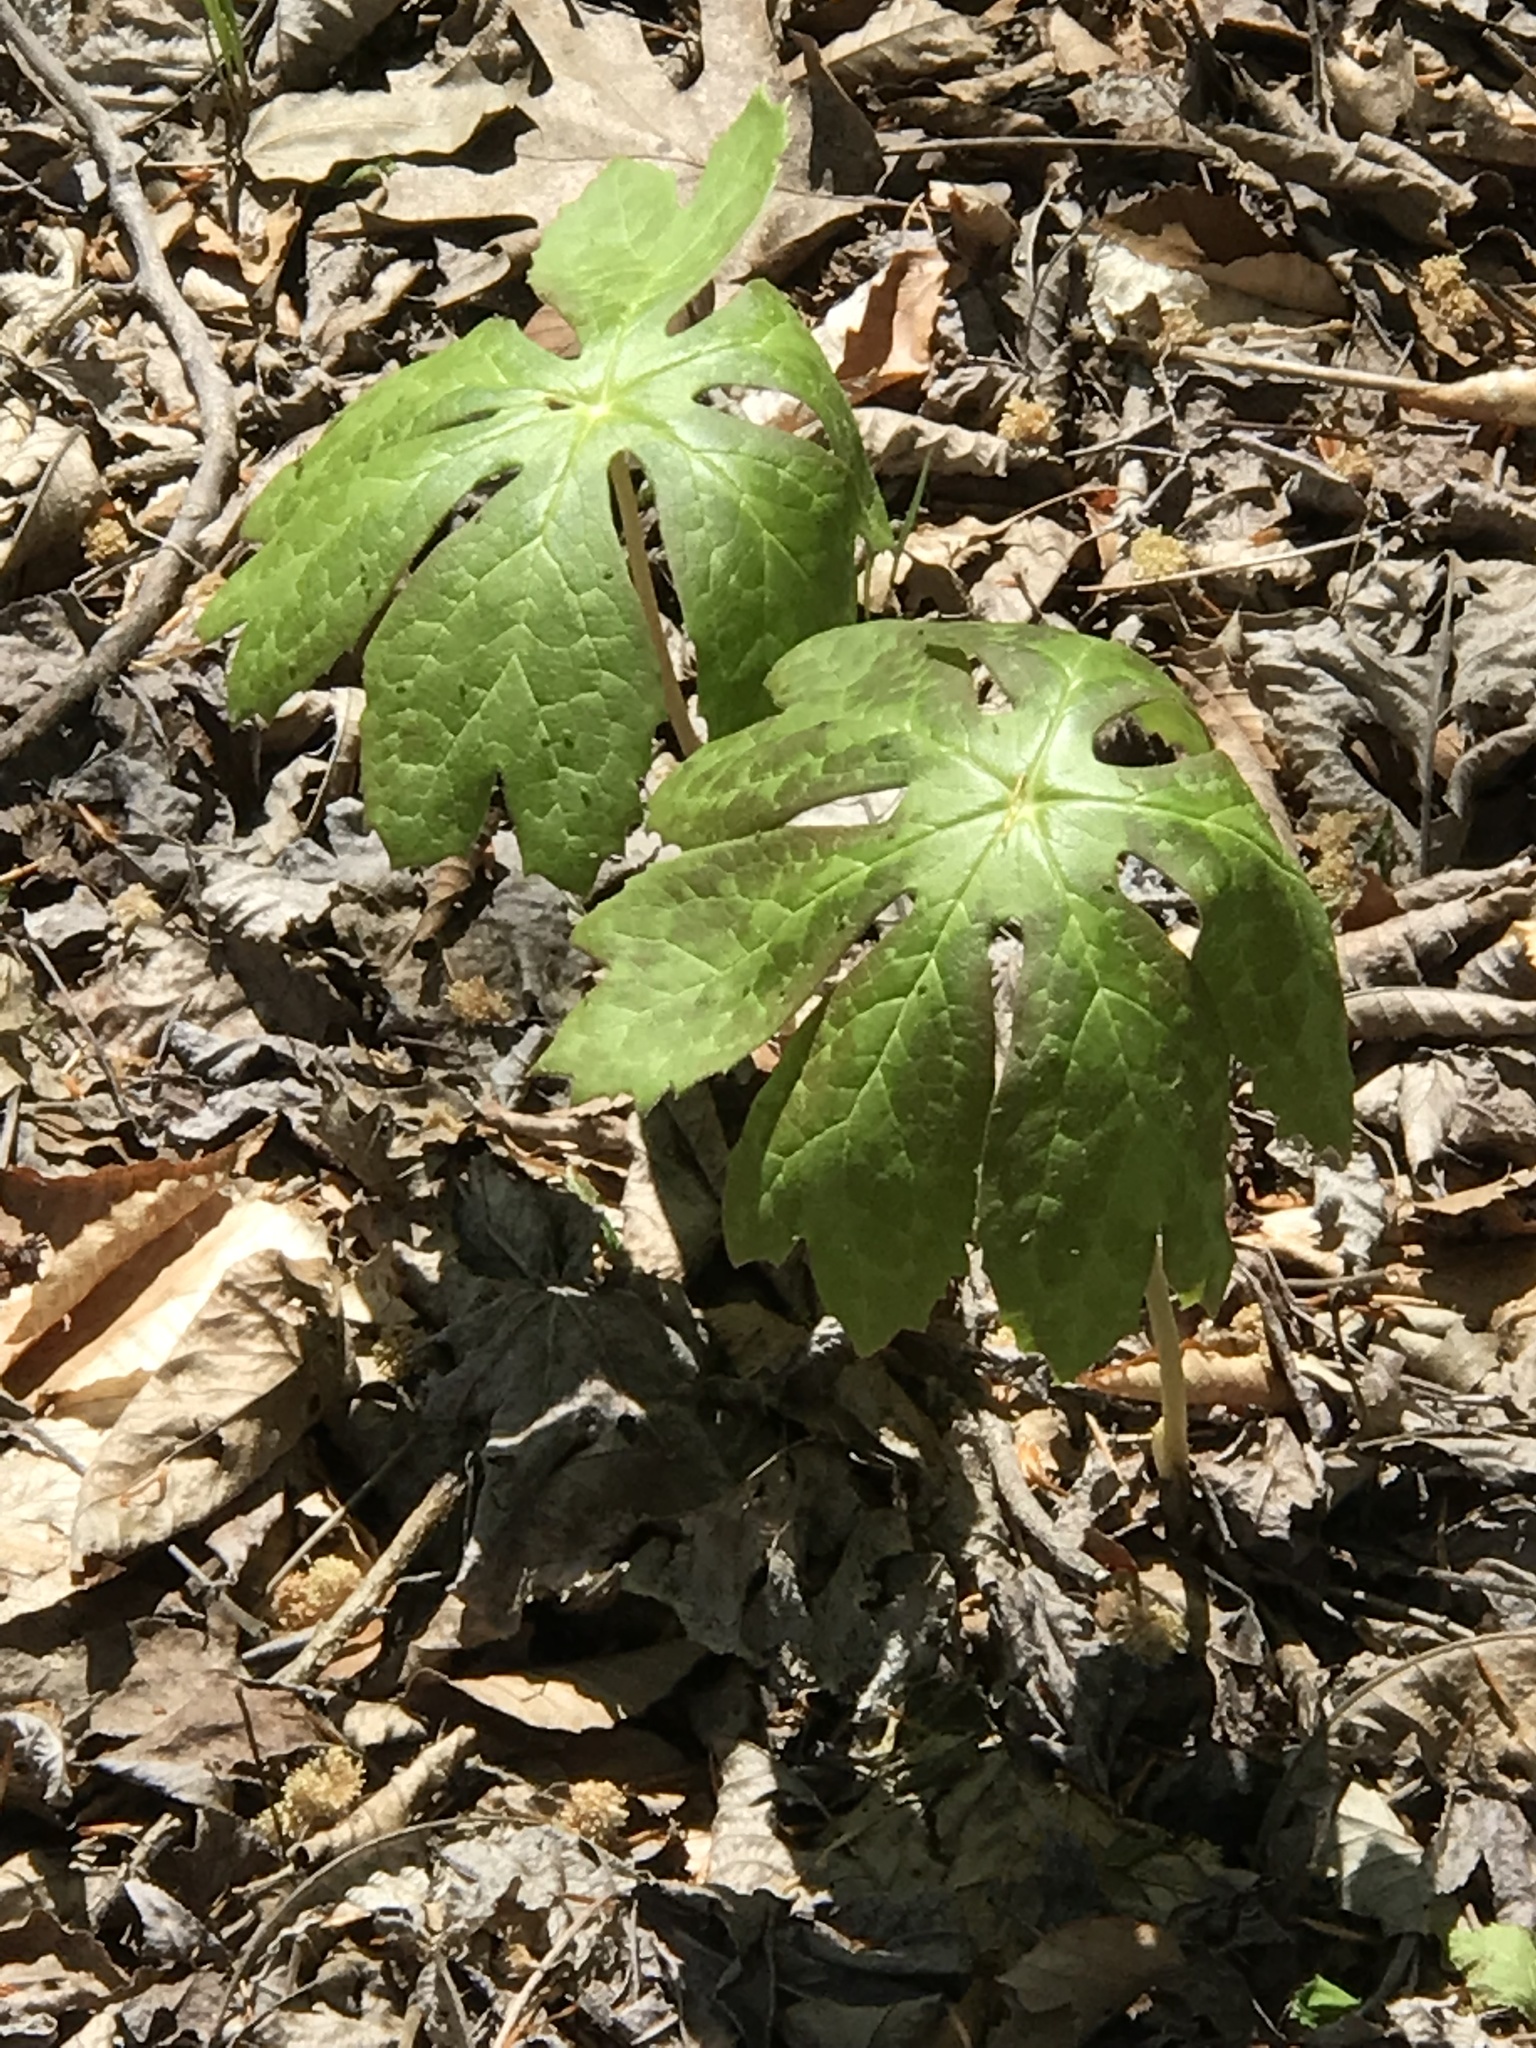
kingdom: Plantae
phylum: Tracheophyta
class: Magnoliopsida
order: Ranunculales
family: Berberidaceae
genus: Podophyllum
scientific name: Podophyllum peltatum
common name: Wild mandrake
